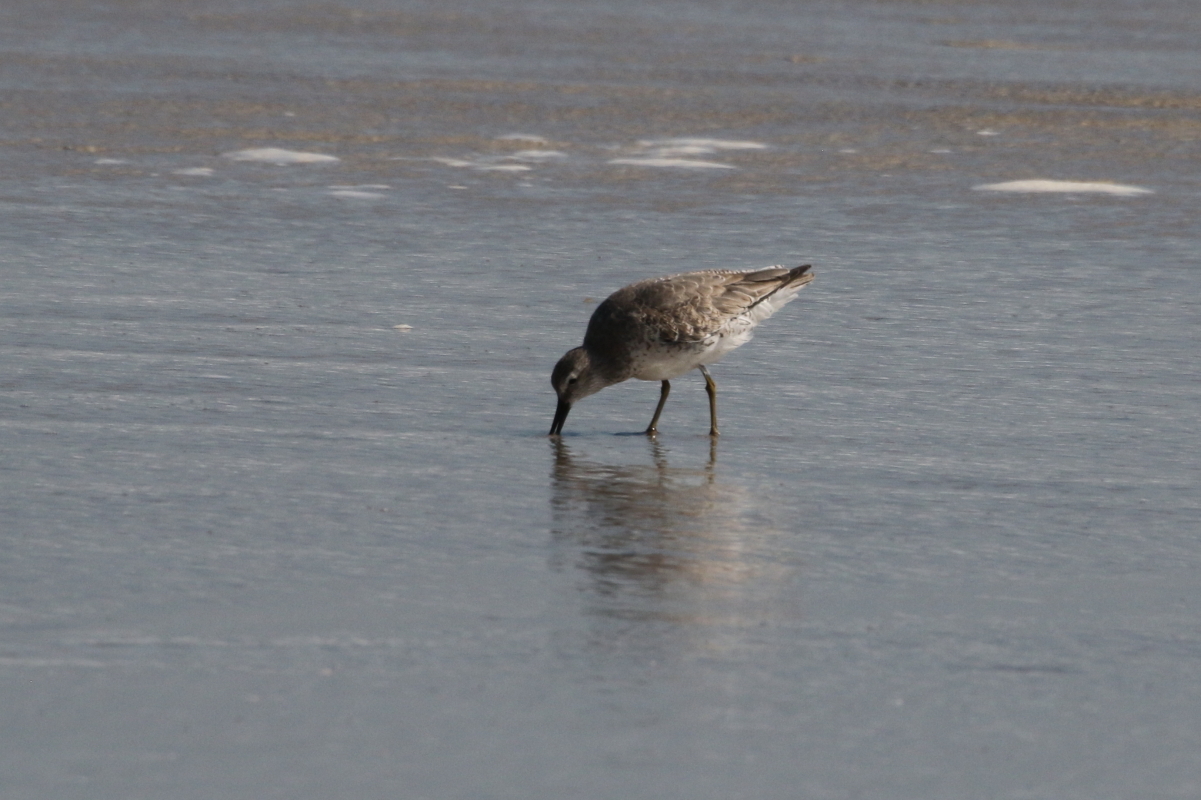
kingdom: Animalia
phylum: Chordata
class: Aves
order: Charadriiformes
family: Scolopacidae
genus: Calidris
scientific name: Calidris canutus
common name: Red knot
